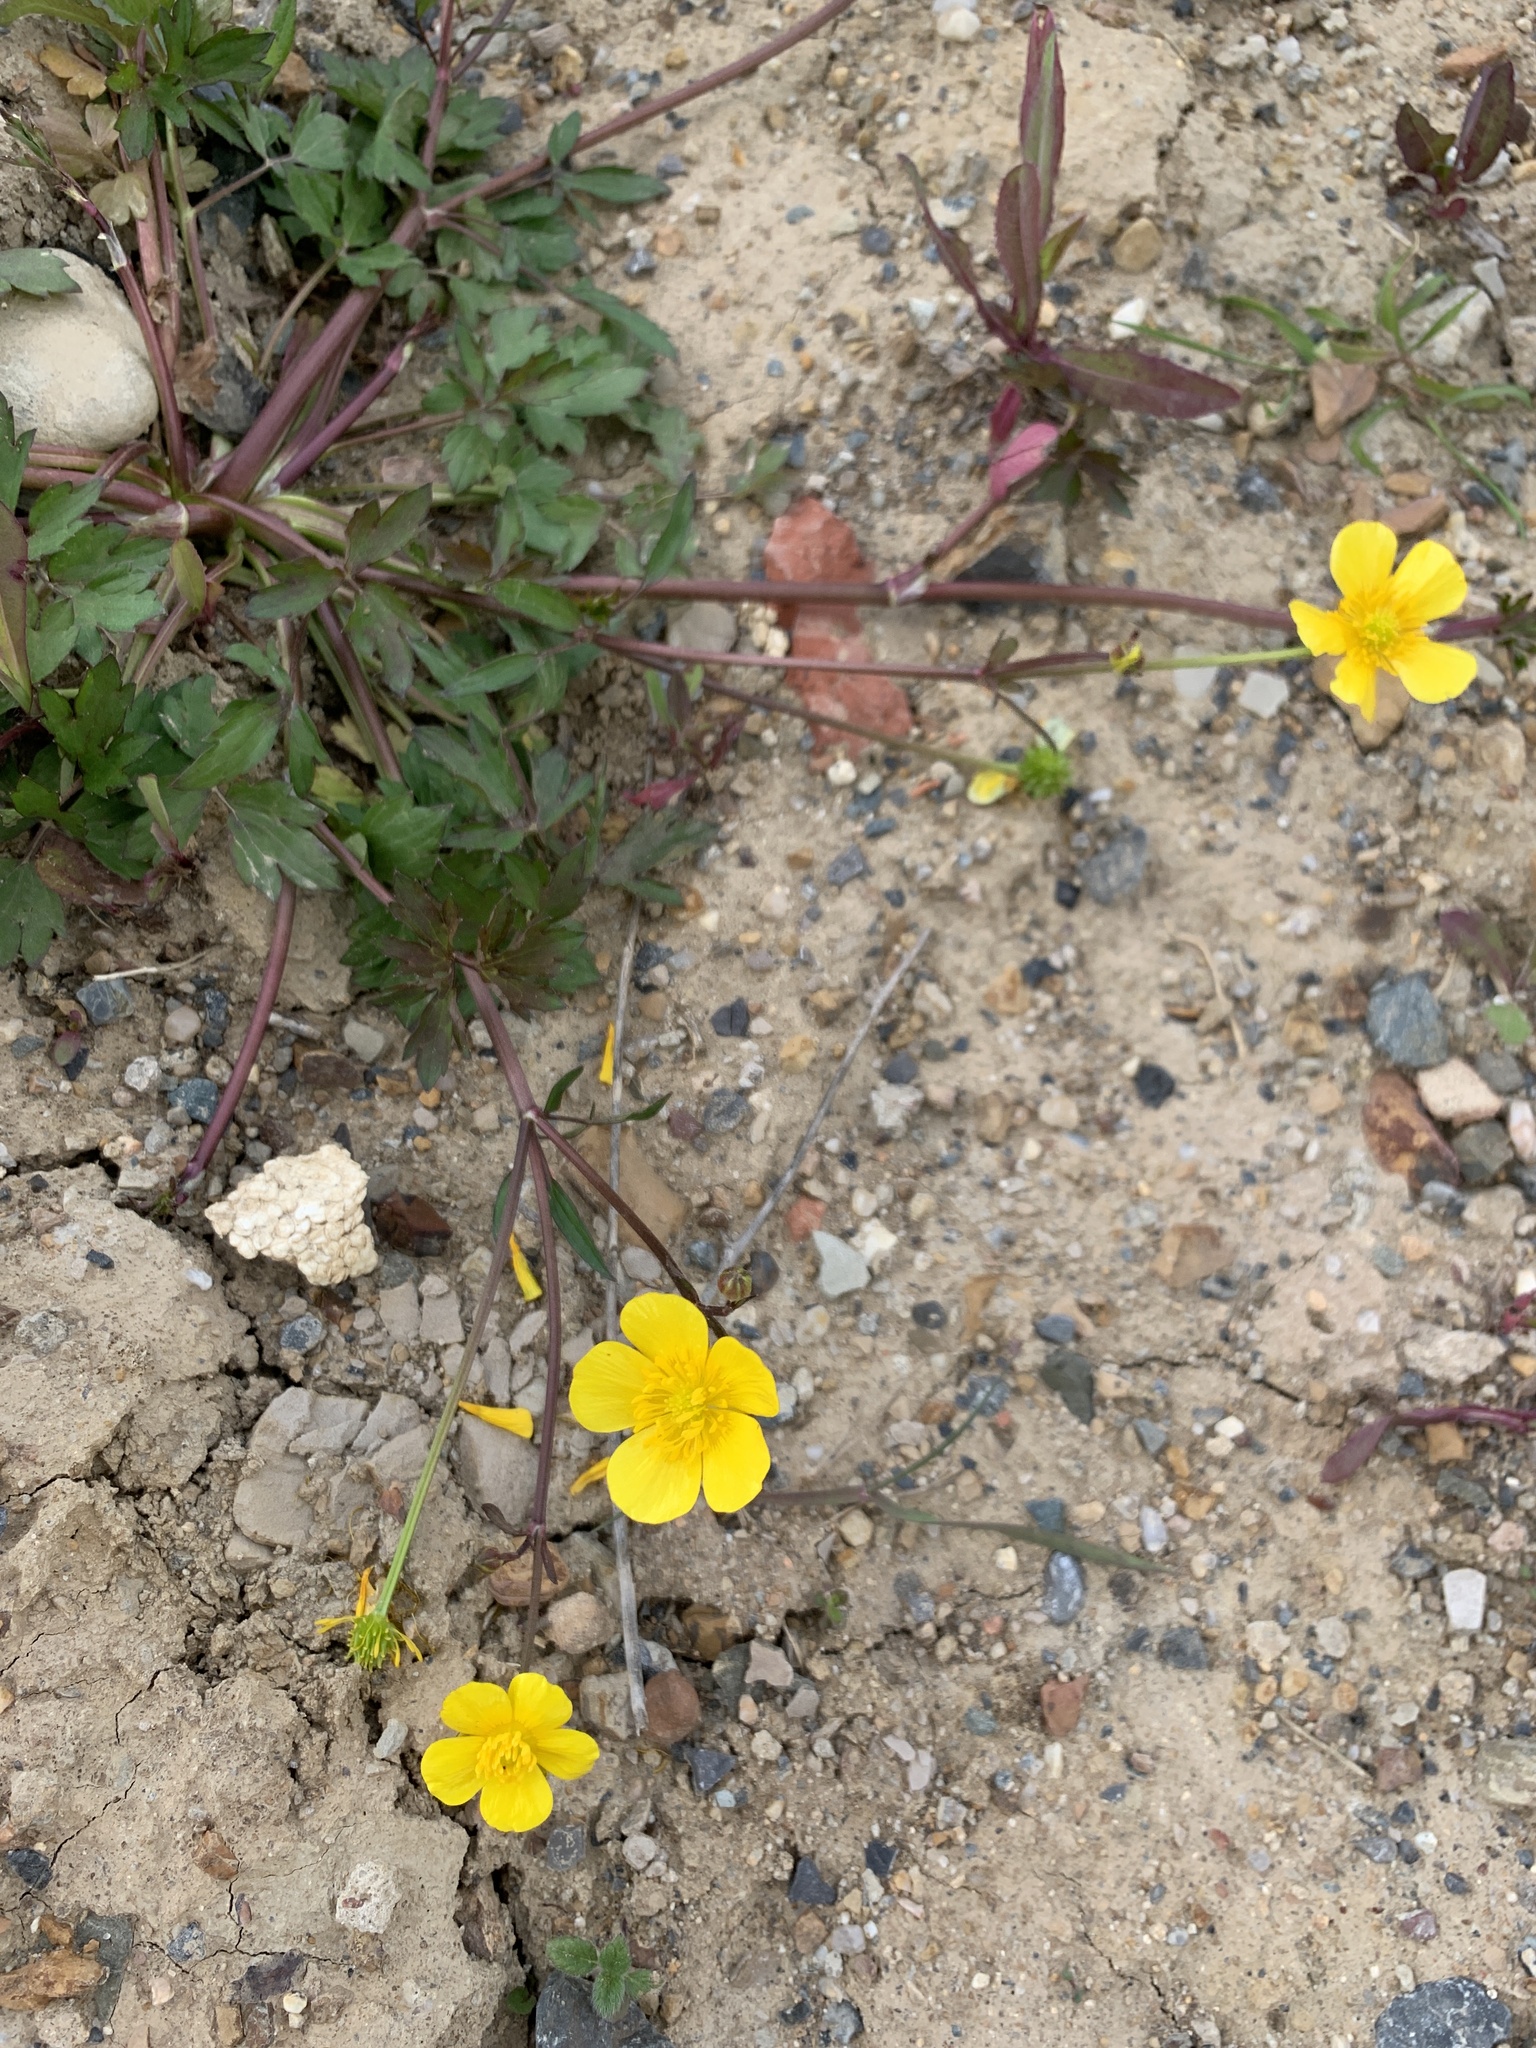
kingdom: Plantae
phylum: Tracheophyta
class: Magnoliopsida
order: Ranunculales
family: Ranunculaceae
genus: Ranunculus
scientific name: Ranunculus repens
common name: Creeping buttercup
